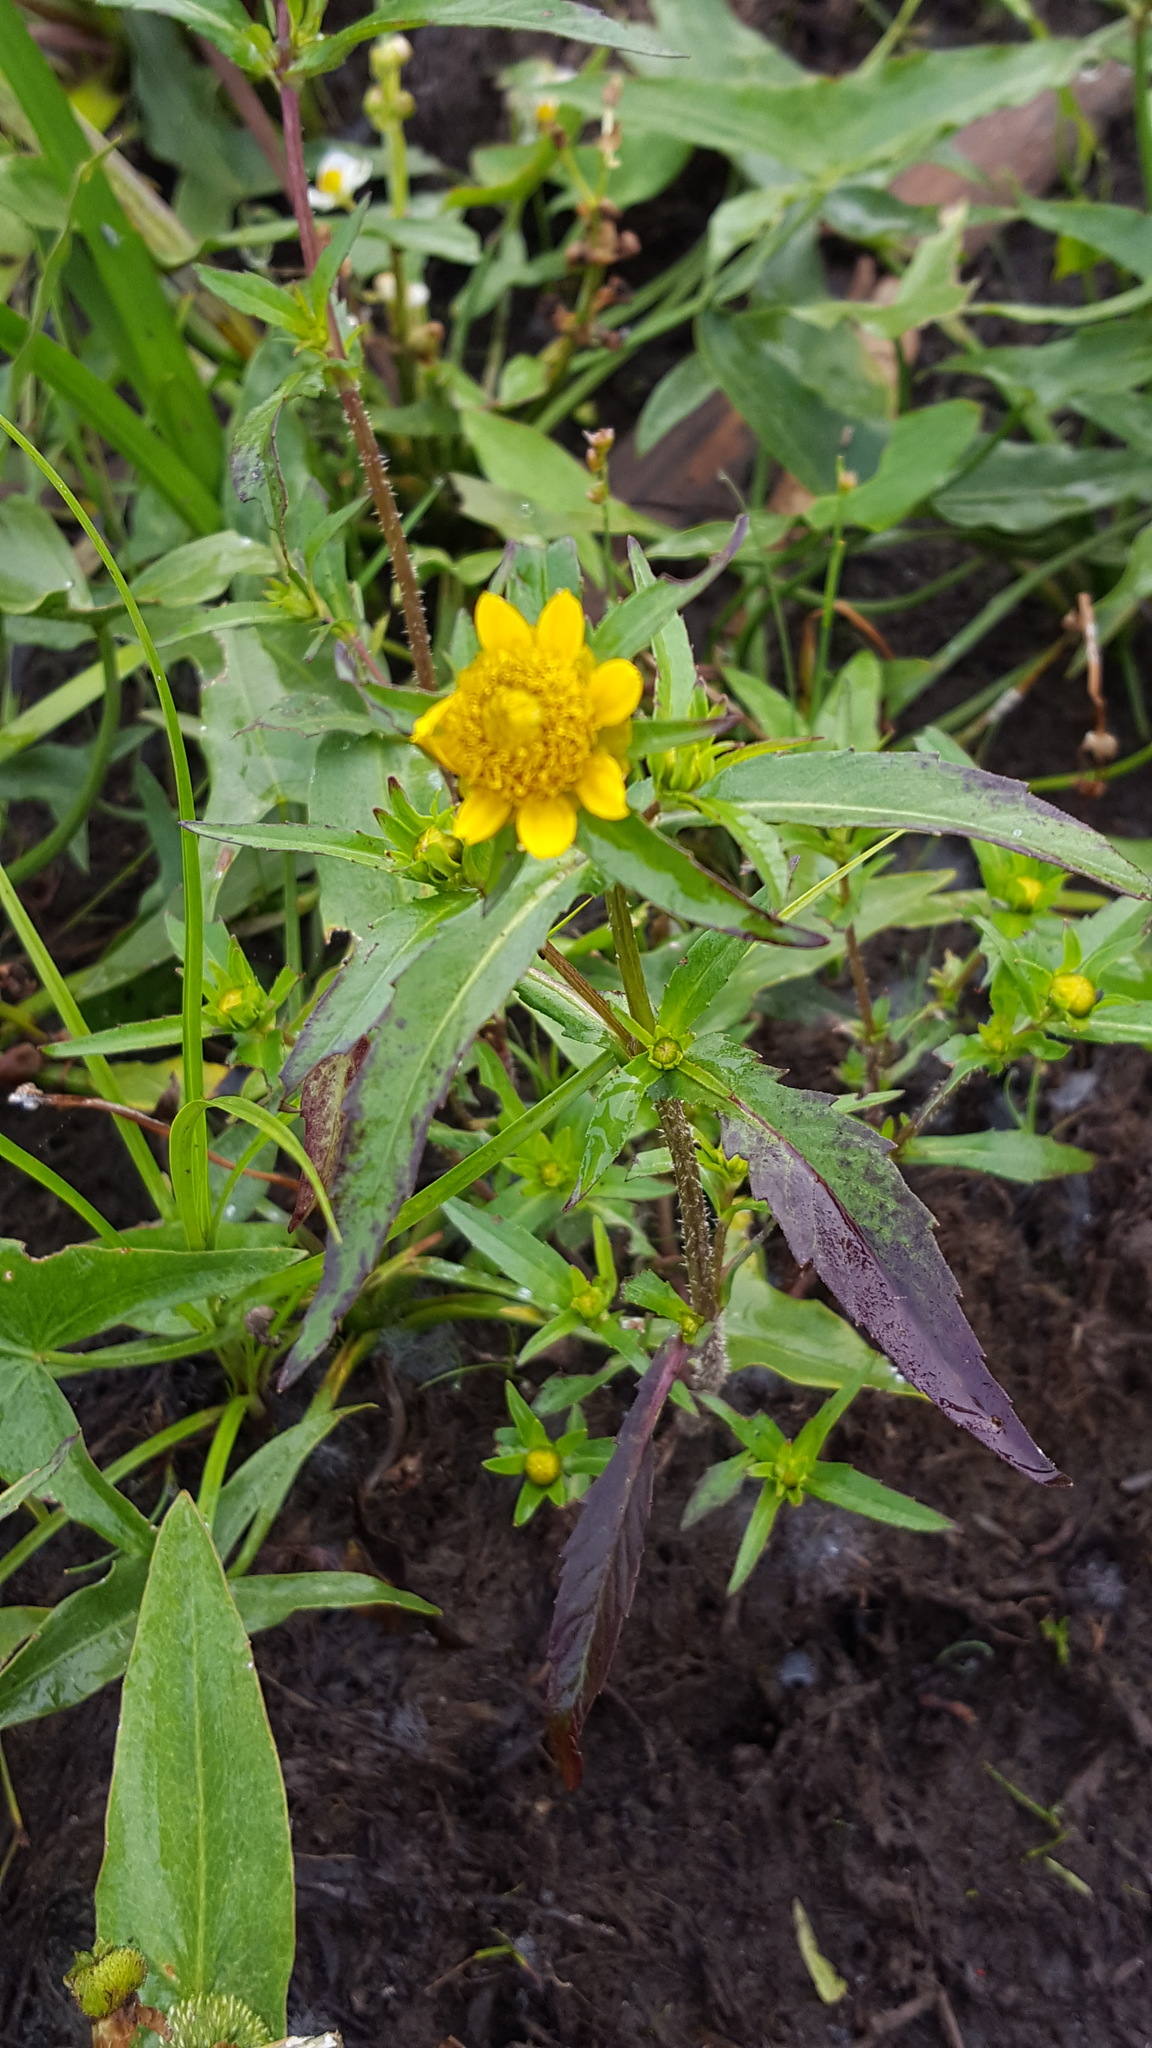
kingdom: Plantae
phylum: Tracheophyta
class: Magnoliopsida
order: Asterales
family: Asteraceae
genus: Bidens
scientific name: Bidens cernua
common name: Nodding bur-marigold
